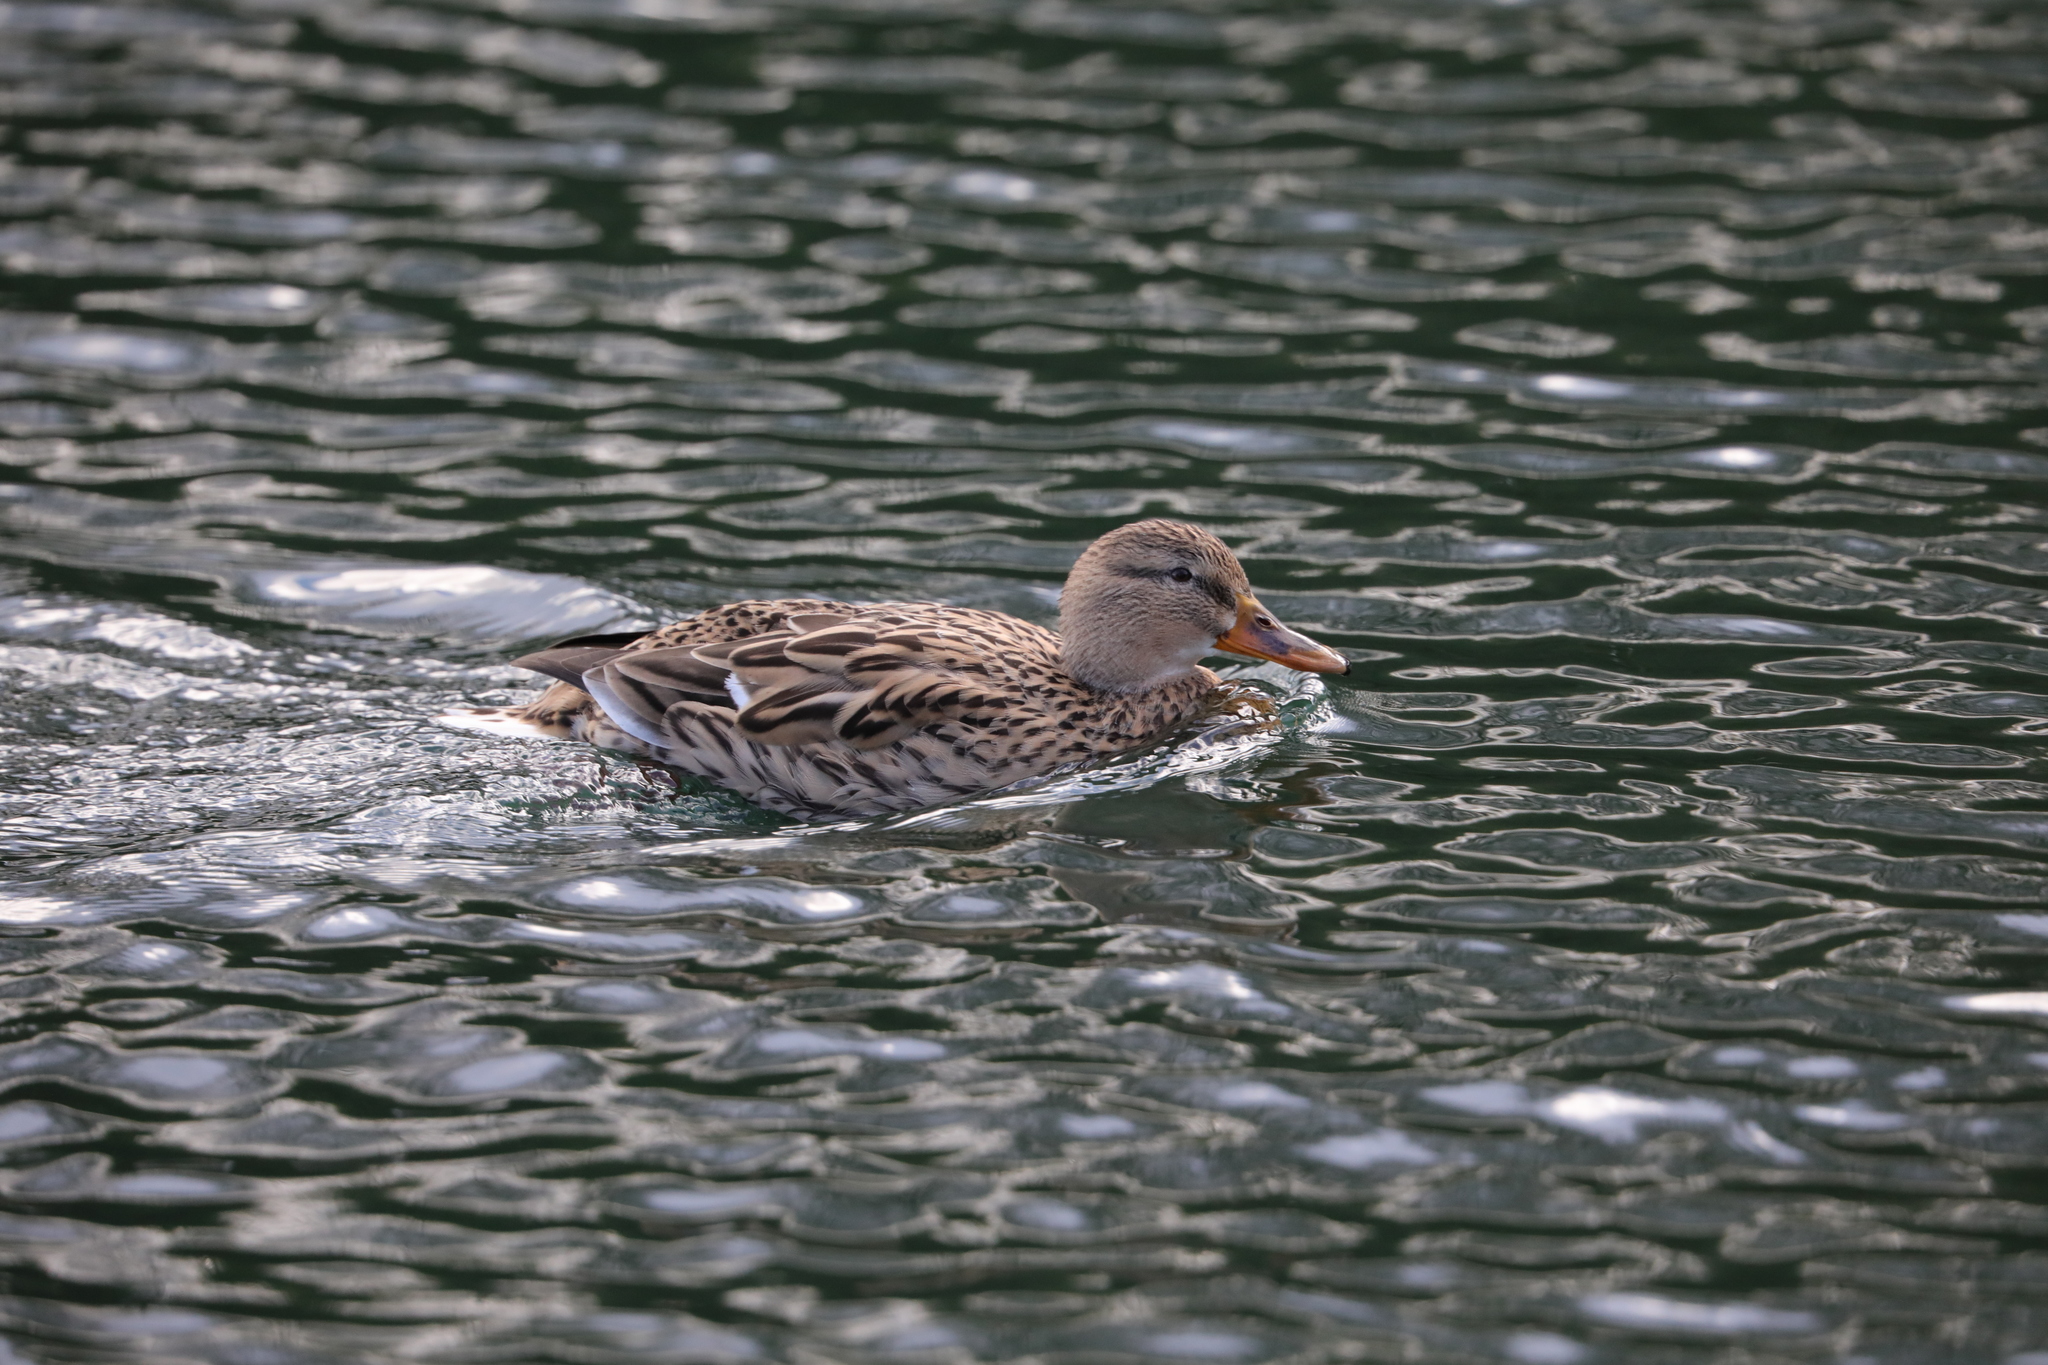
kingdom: Animalia
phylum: Chordata
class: Aves
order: Anseriformes
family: Anatidae
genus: Anas
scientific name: Anas platyrhynchos
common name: Mallard
